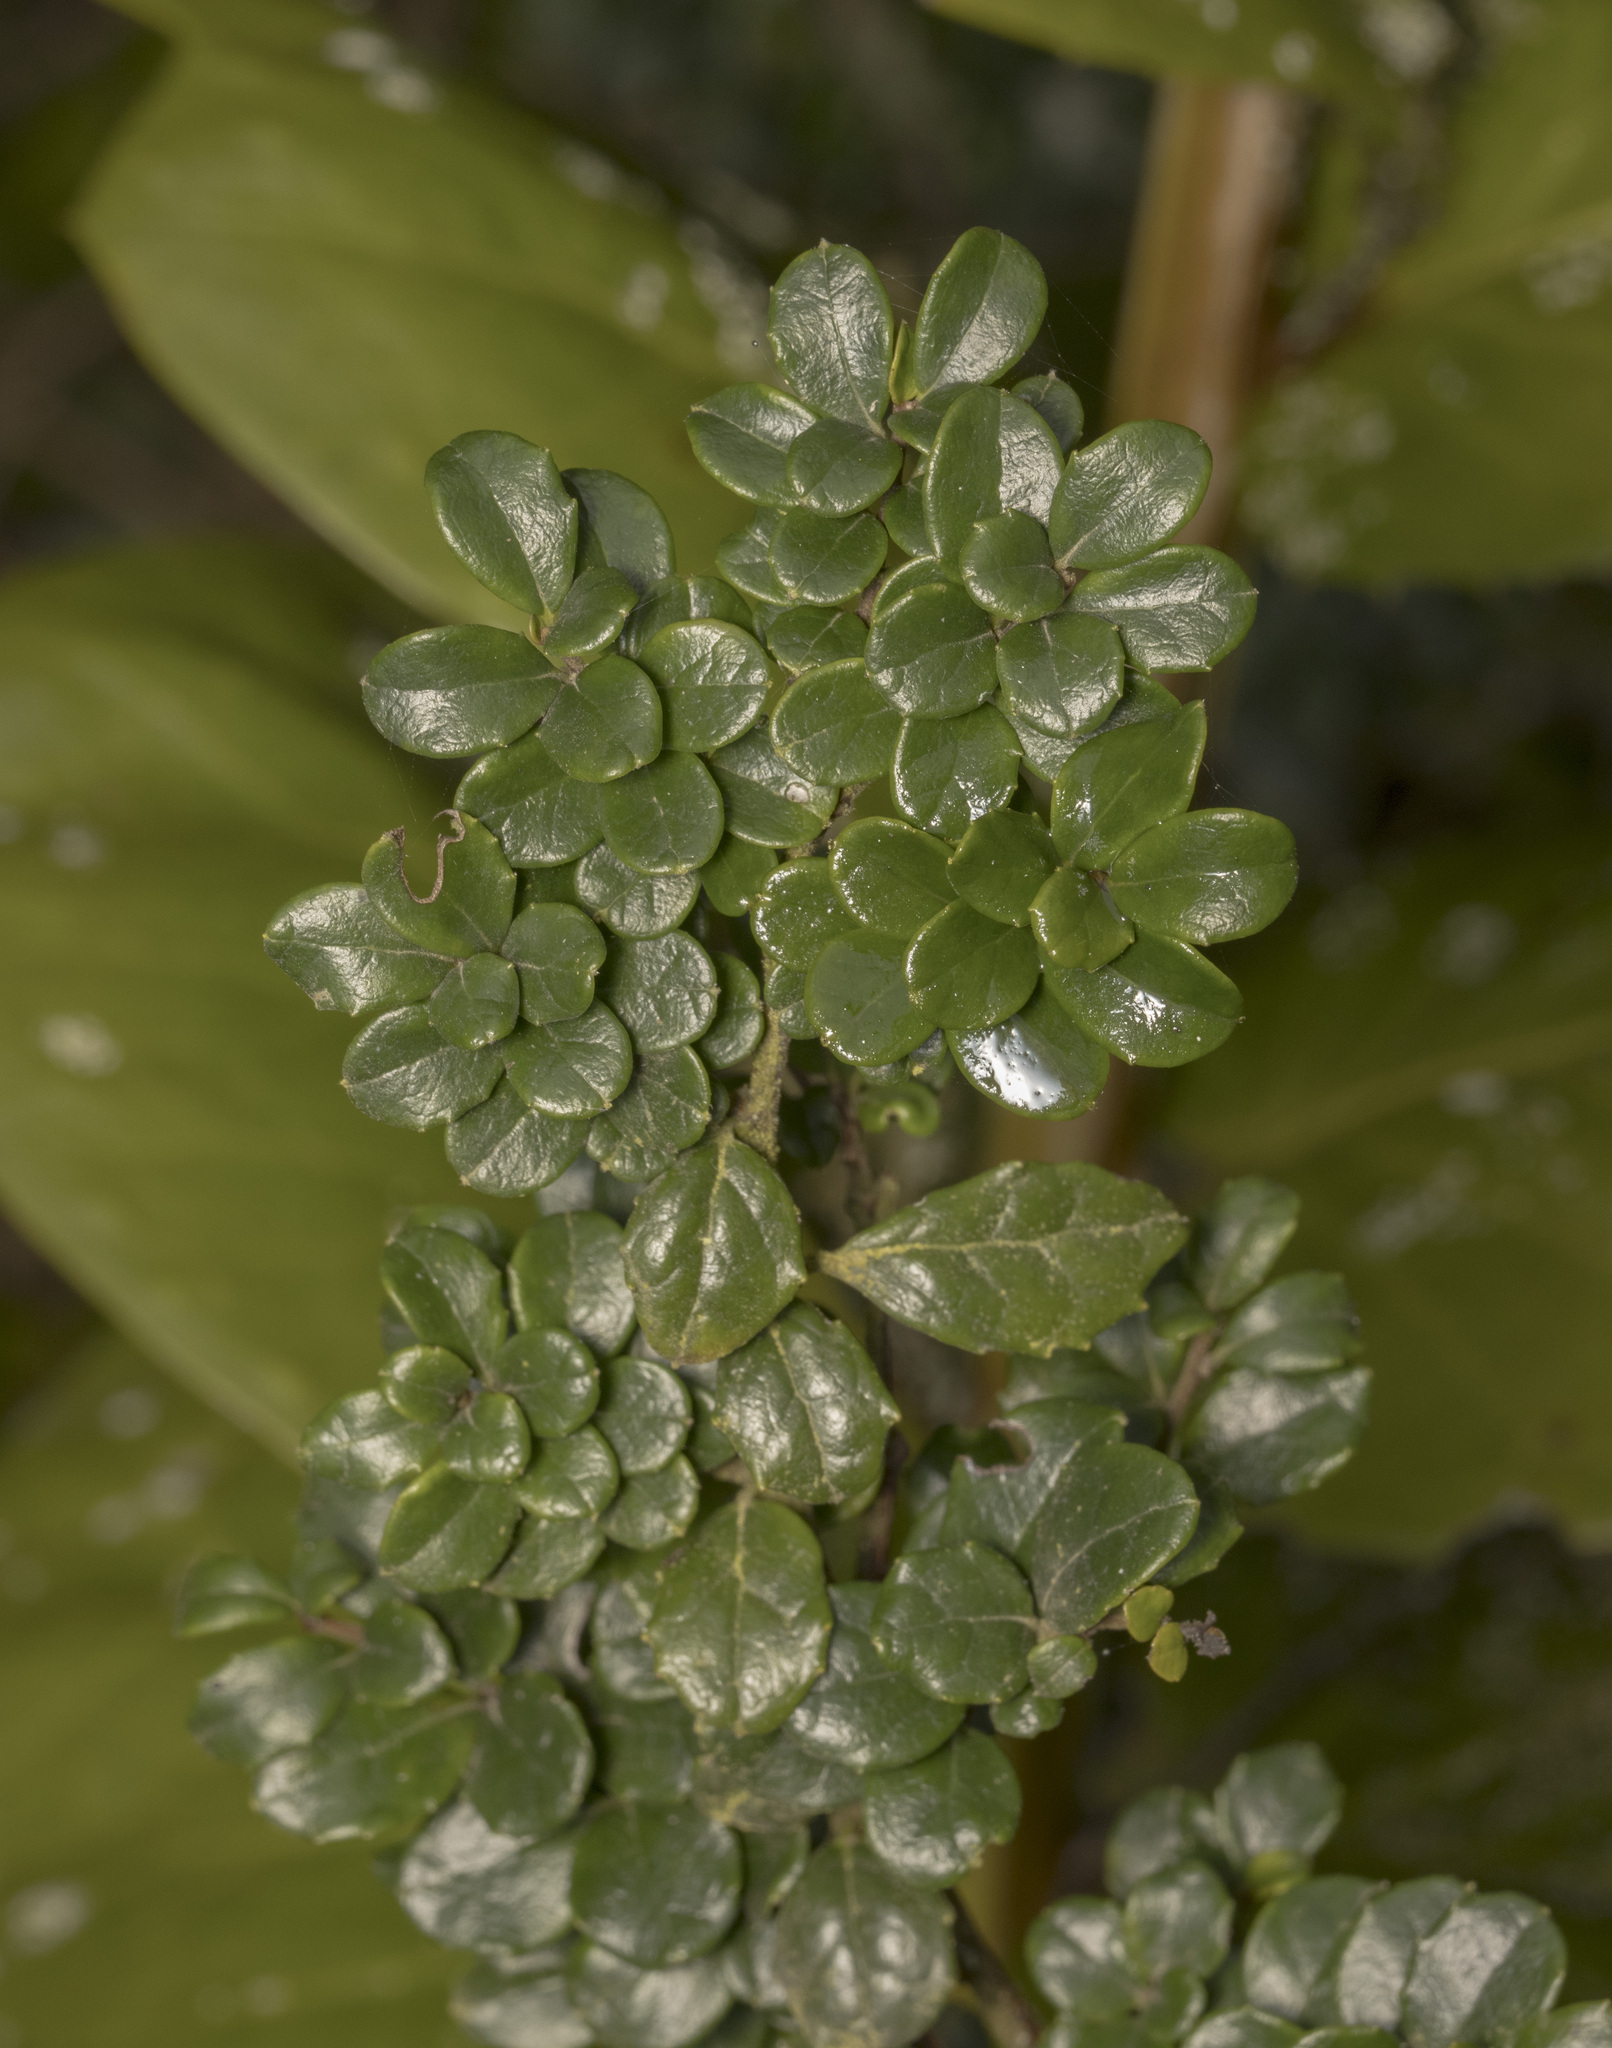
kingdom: Plantae
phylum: Tracheophyta
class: Magnoliopsida
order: Malpighiales
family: Salicaceae
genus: Azara
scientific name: Azara microphylla
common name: Box-leaf azara
